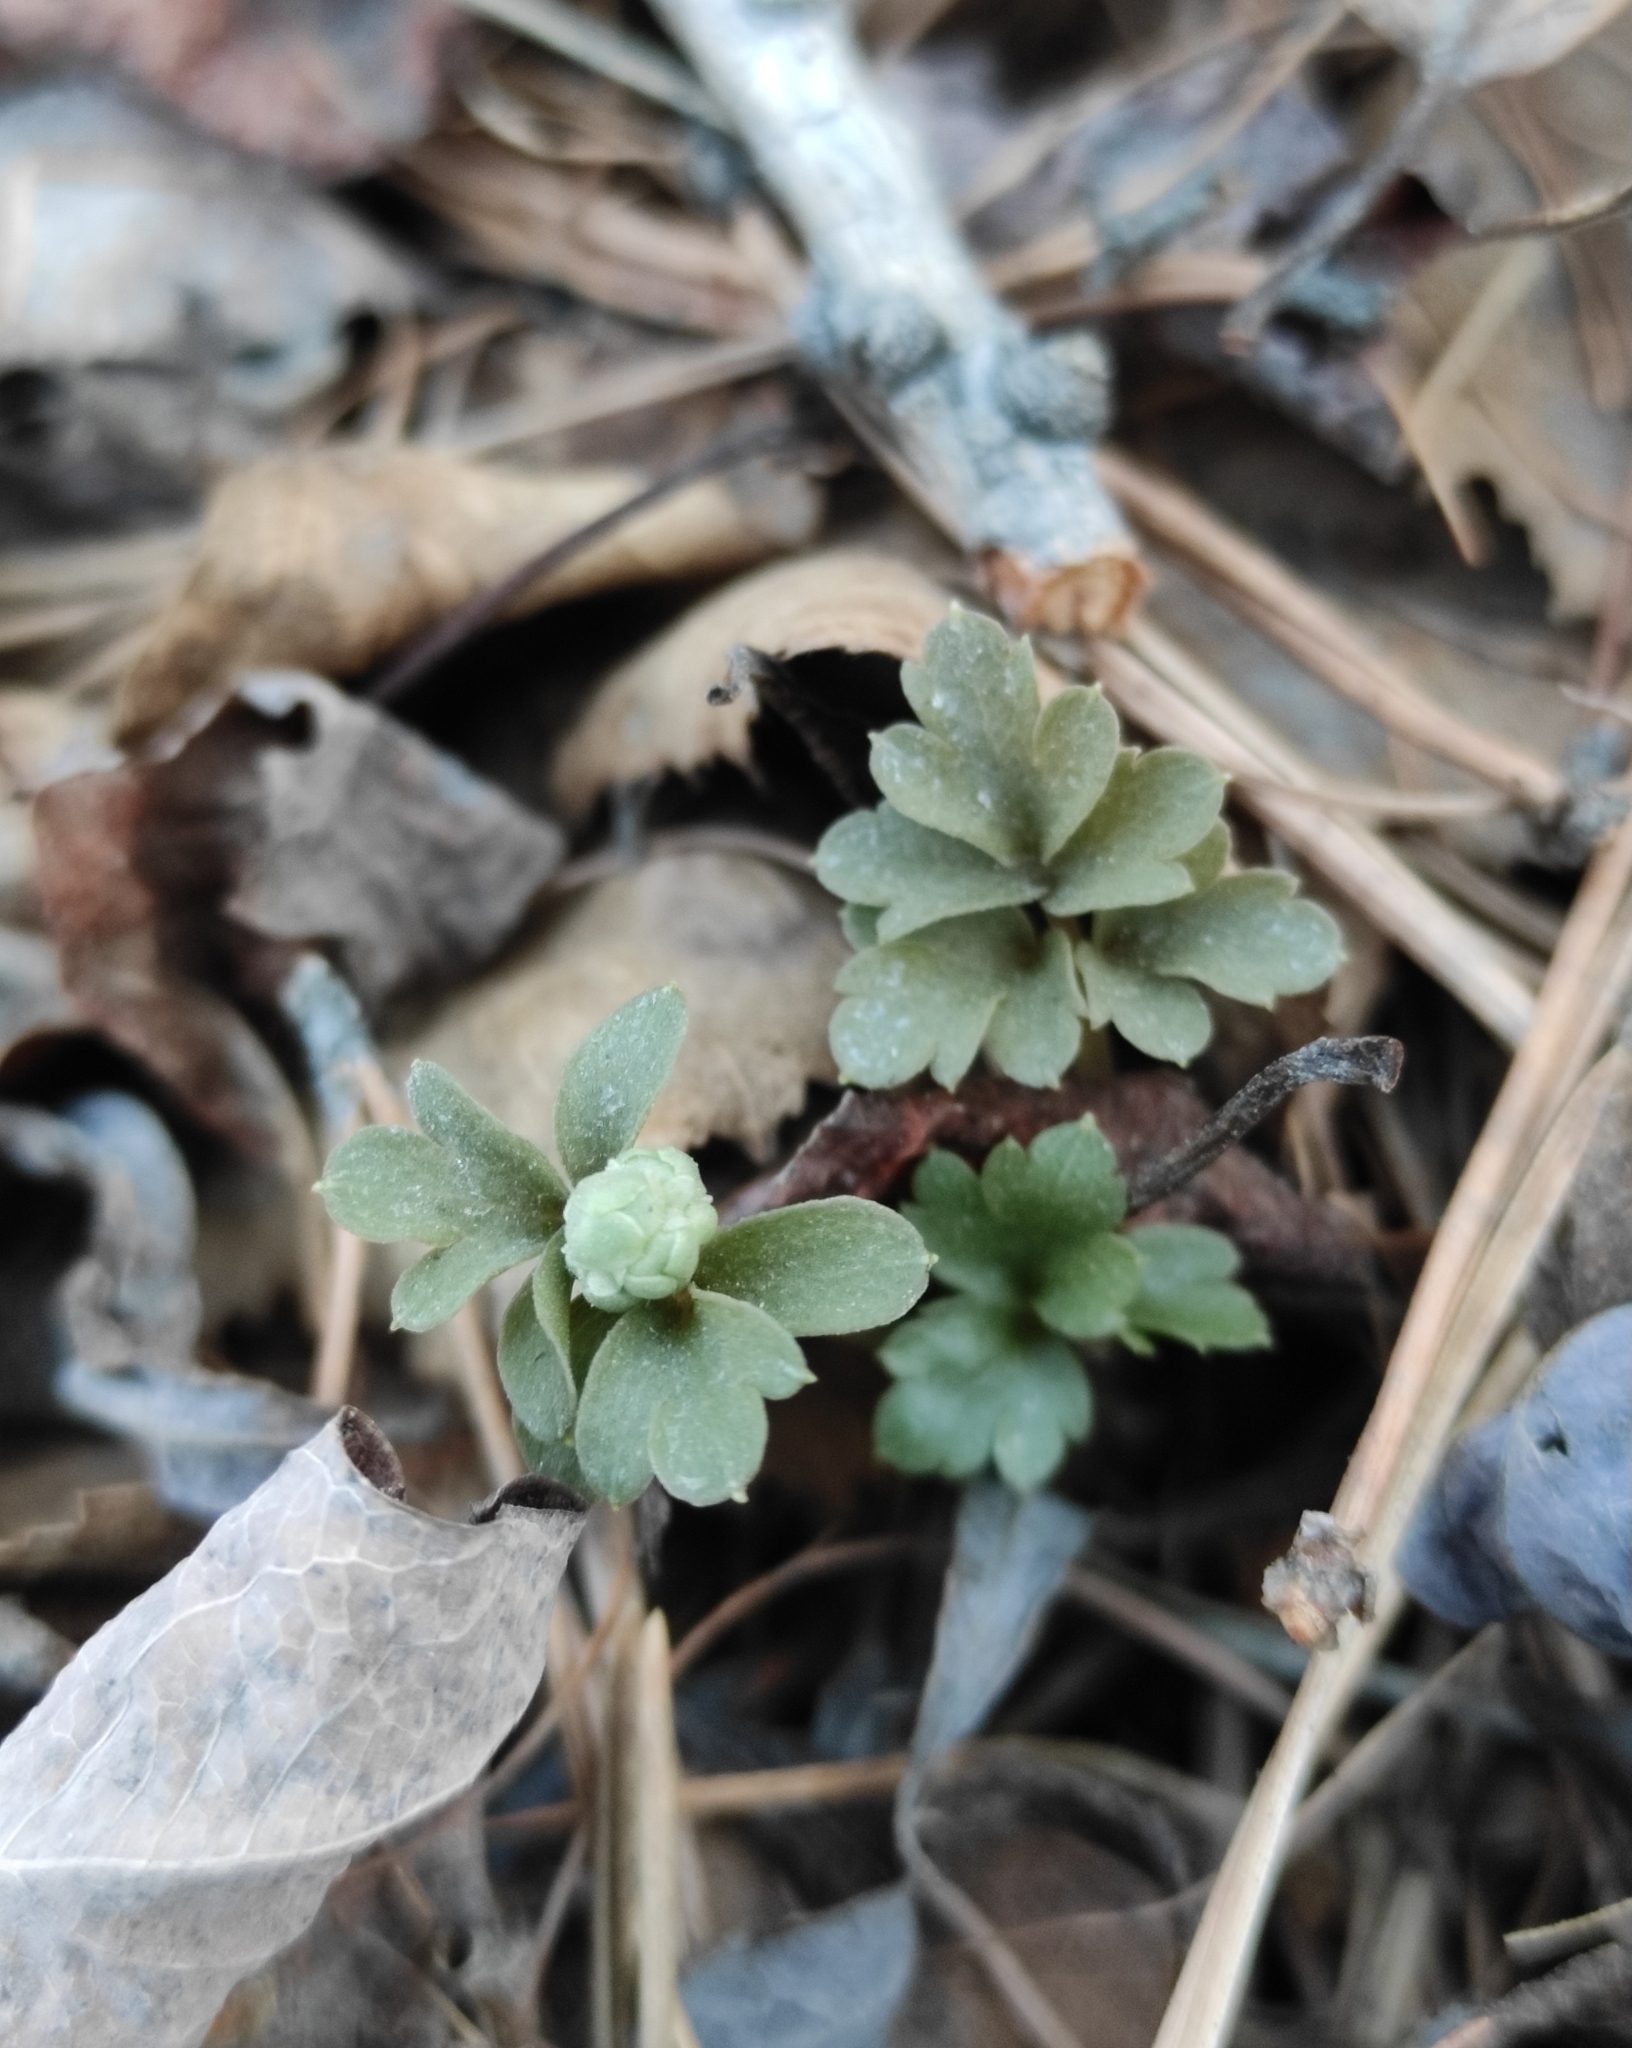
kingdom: Plantae
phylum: Tracheophyta
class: Magnoliopsida
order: Dipsacales
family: Viburnaceae
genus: Adoxa
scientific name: Adoxa moschatellina
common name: Moschatel
